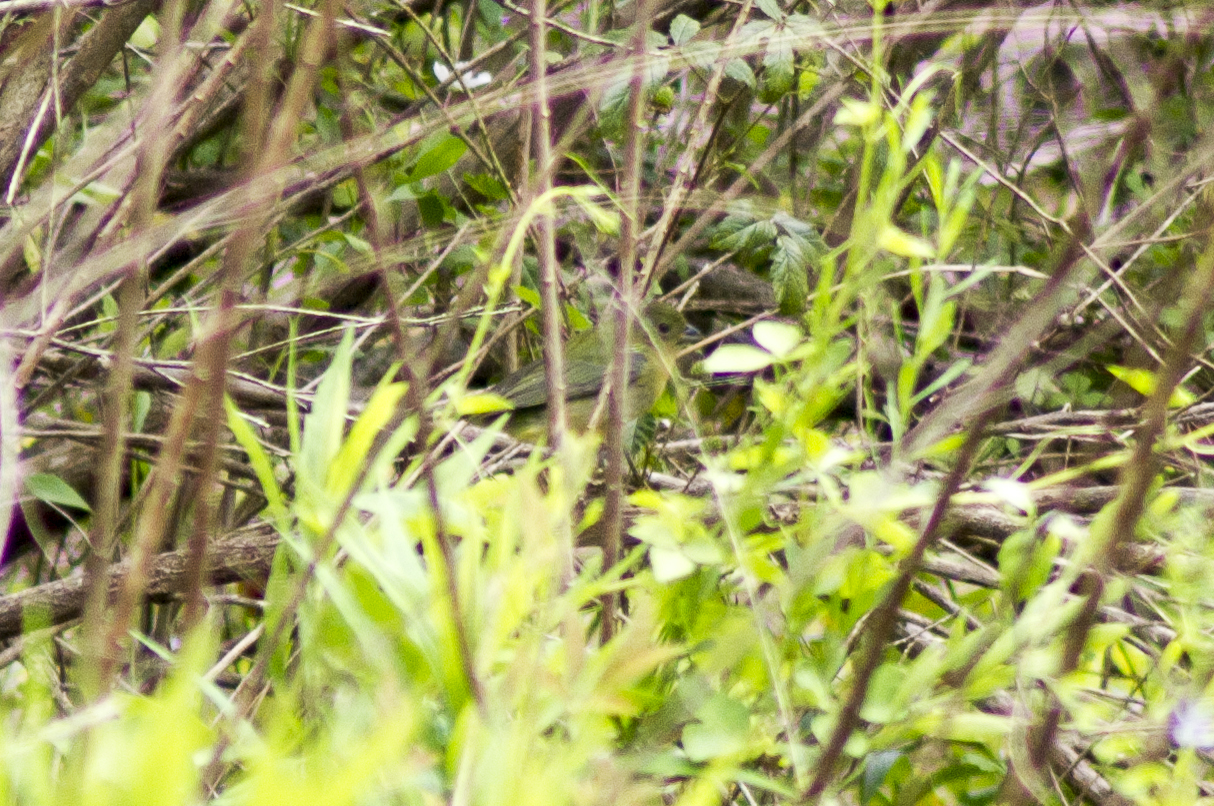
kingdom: Animalia
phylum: Chordata
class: Aves
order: Passeriformes
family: Cardinalidae
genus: Passerina
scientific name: Passerina ciris
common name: Painted bunting
